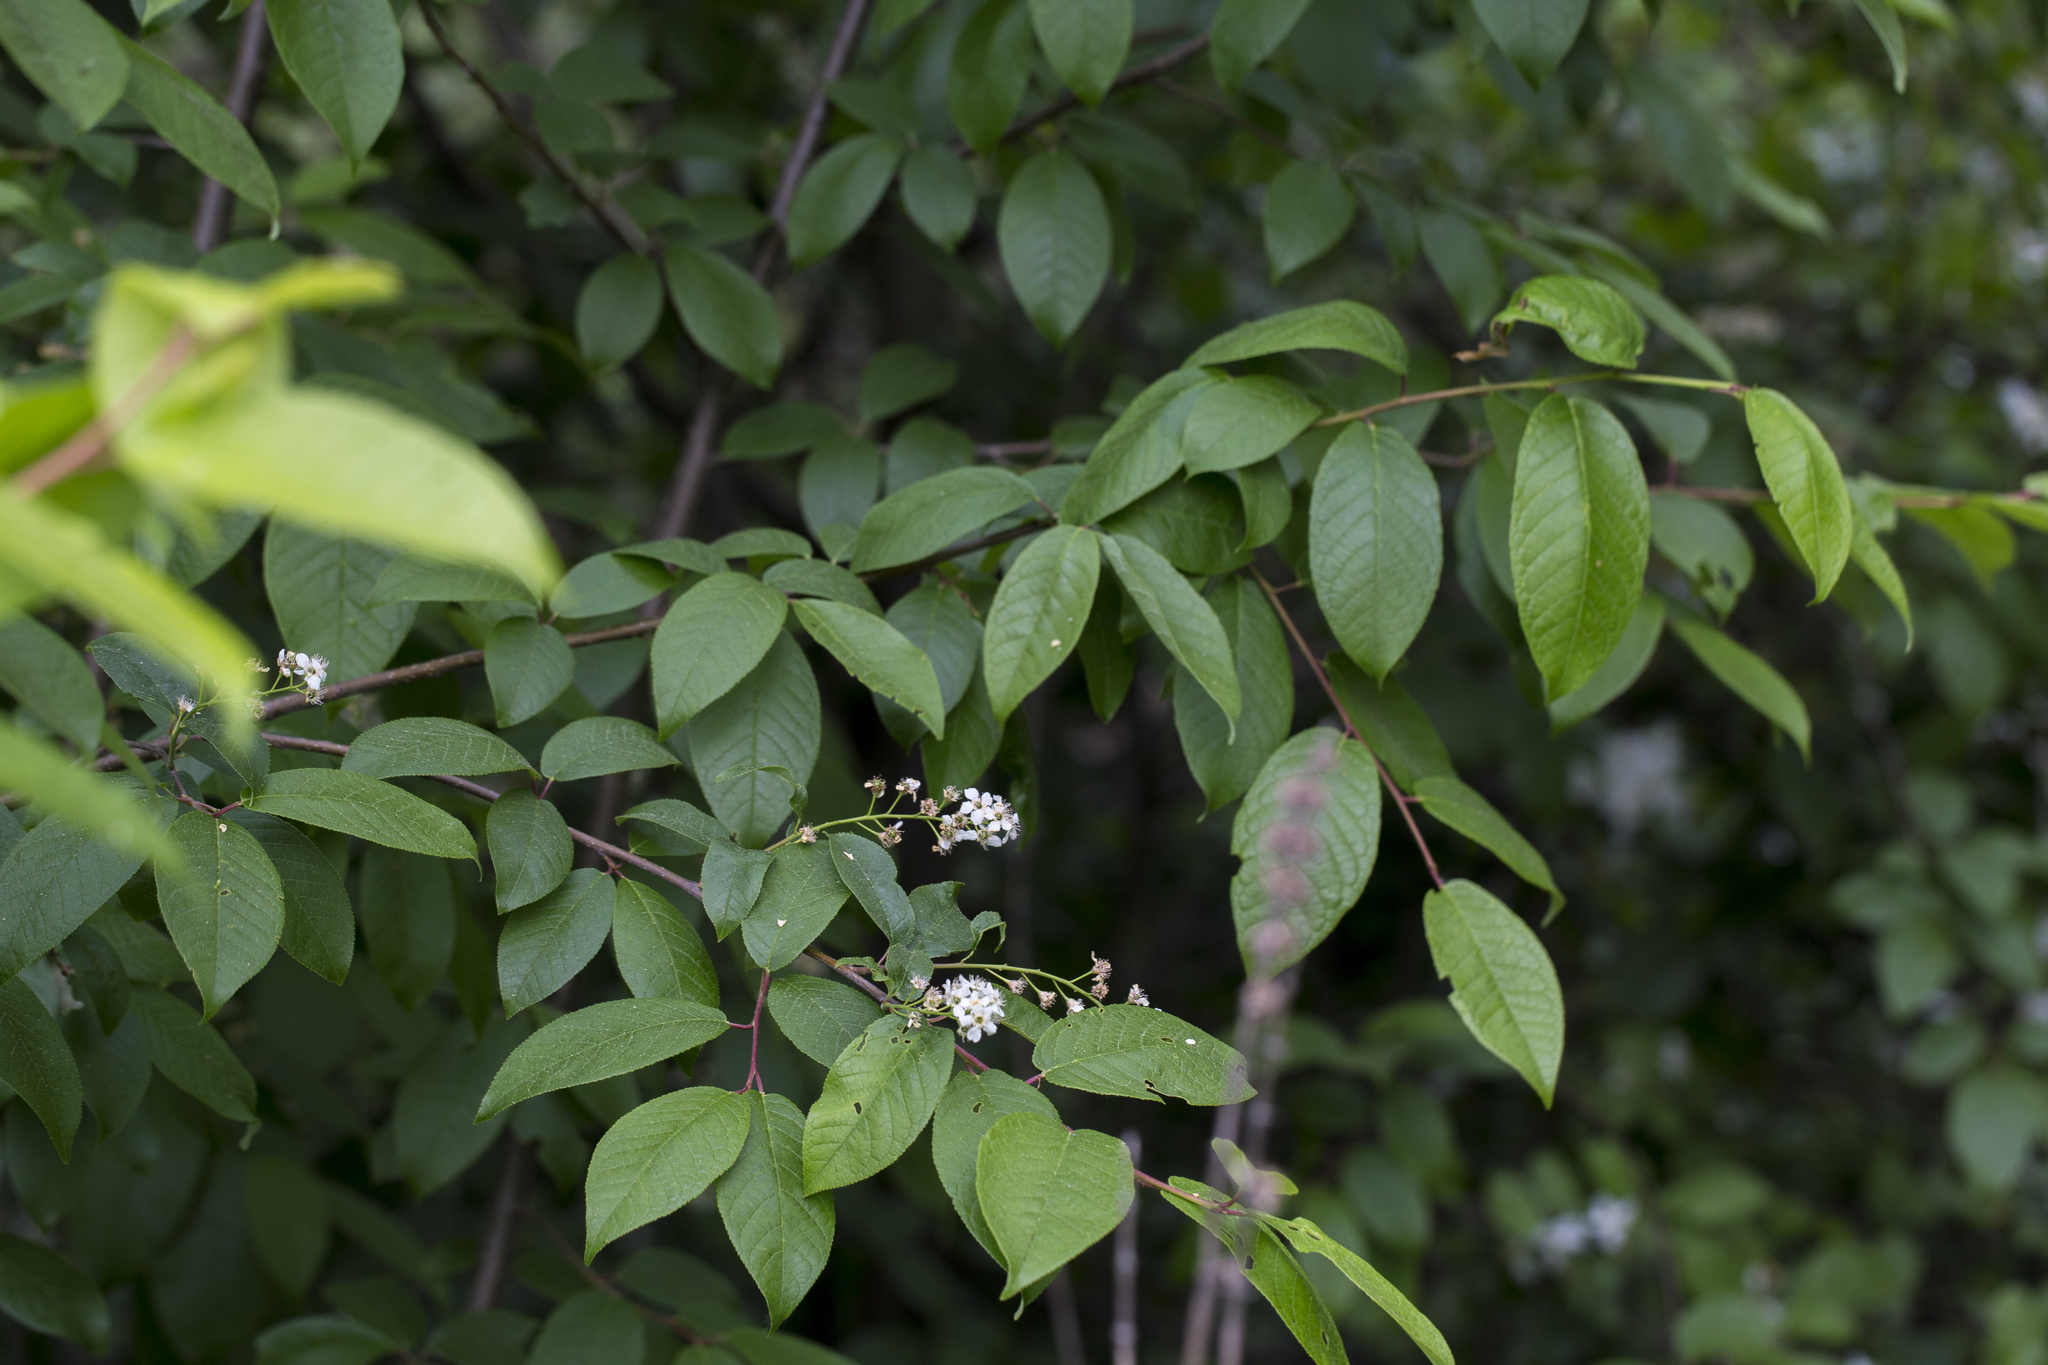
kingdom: Plantae
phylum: Tracheophyta
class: Magnoliopsida
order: Rosales
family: Rosaceae
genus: Prunus
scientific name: Prunus padus
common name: Bird cherry
